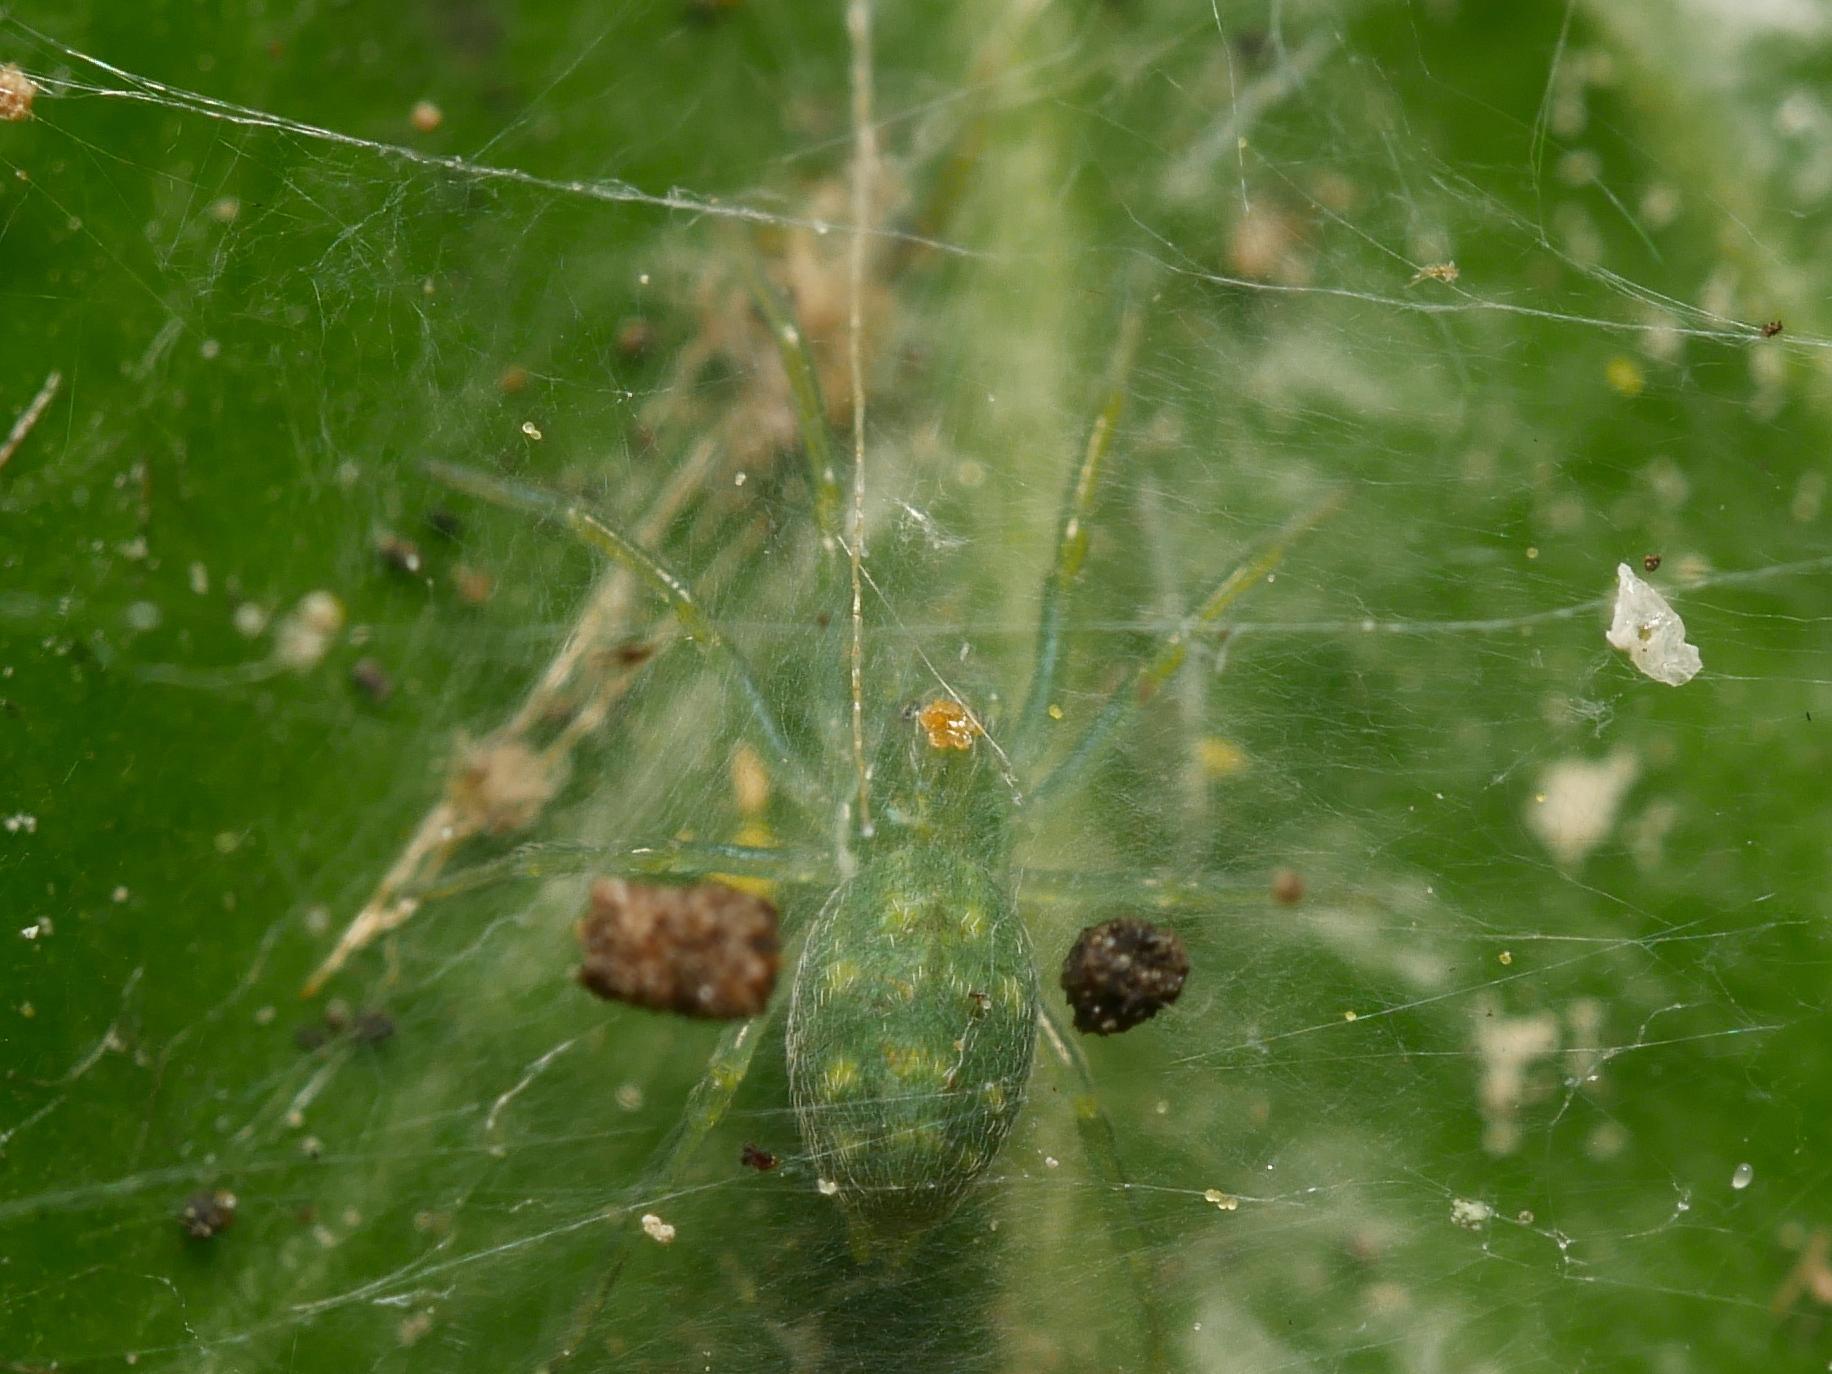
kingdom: Animalia
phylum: Arthropoda
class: Arachnida
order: Araneae
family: Dictynidae
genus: Nigma
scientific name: Nigma walckenaeri
